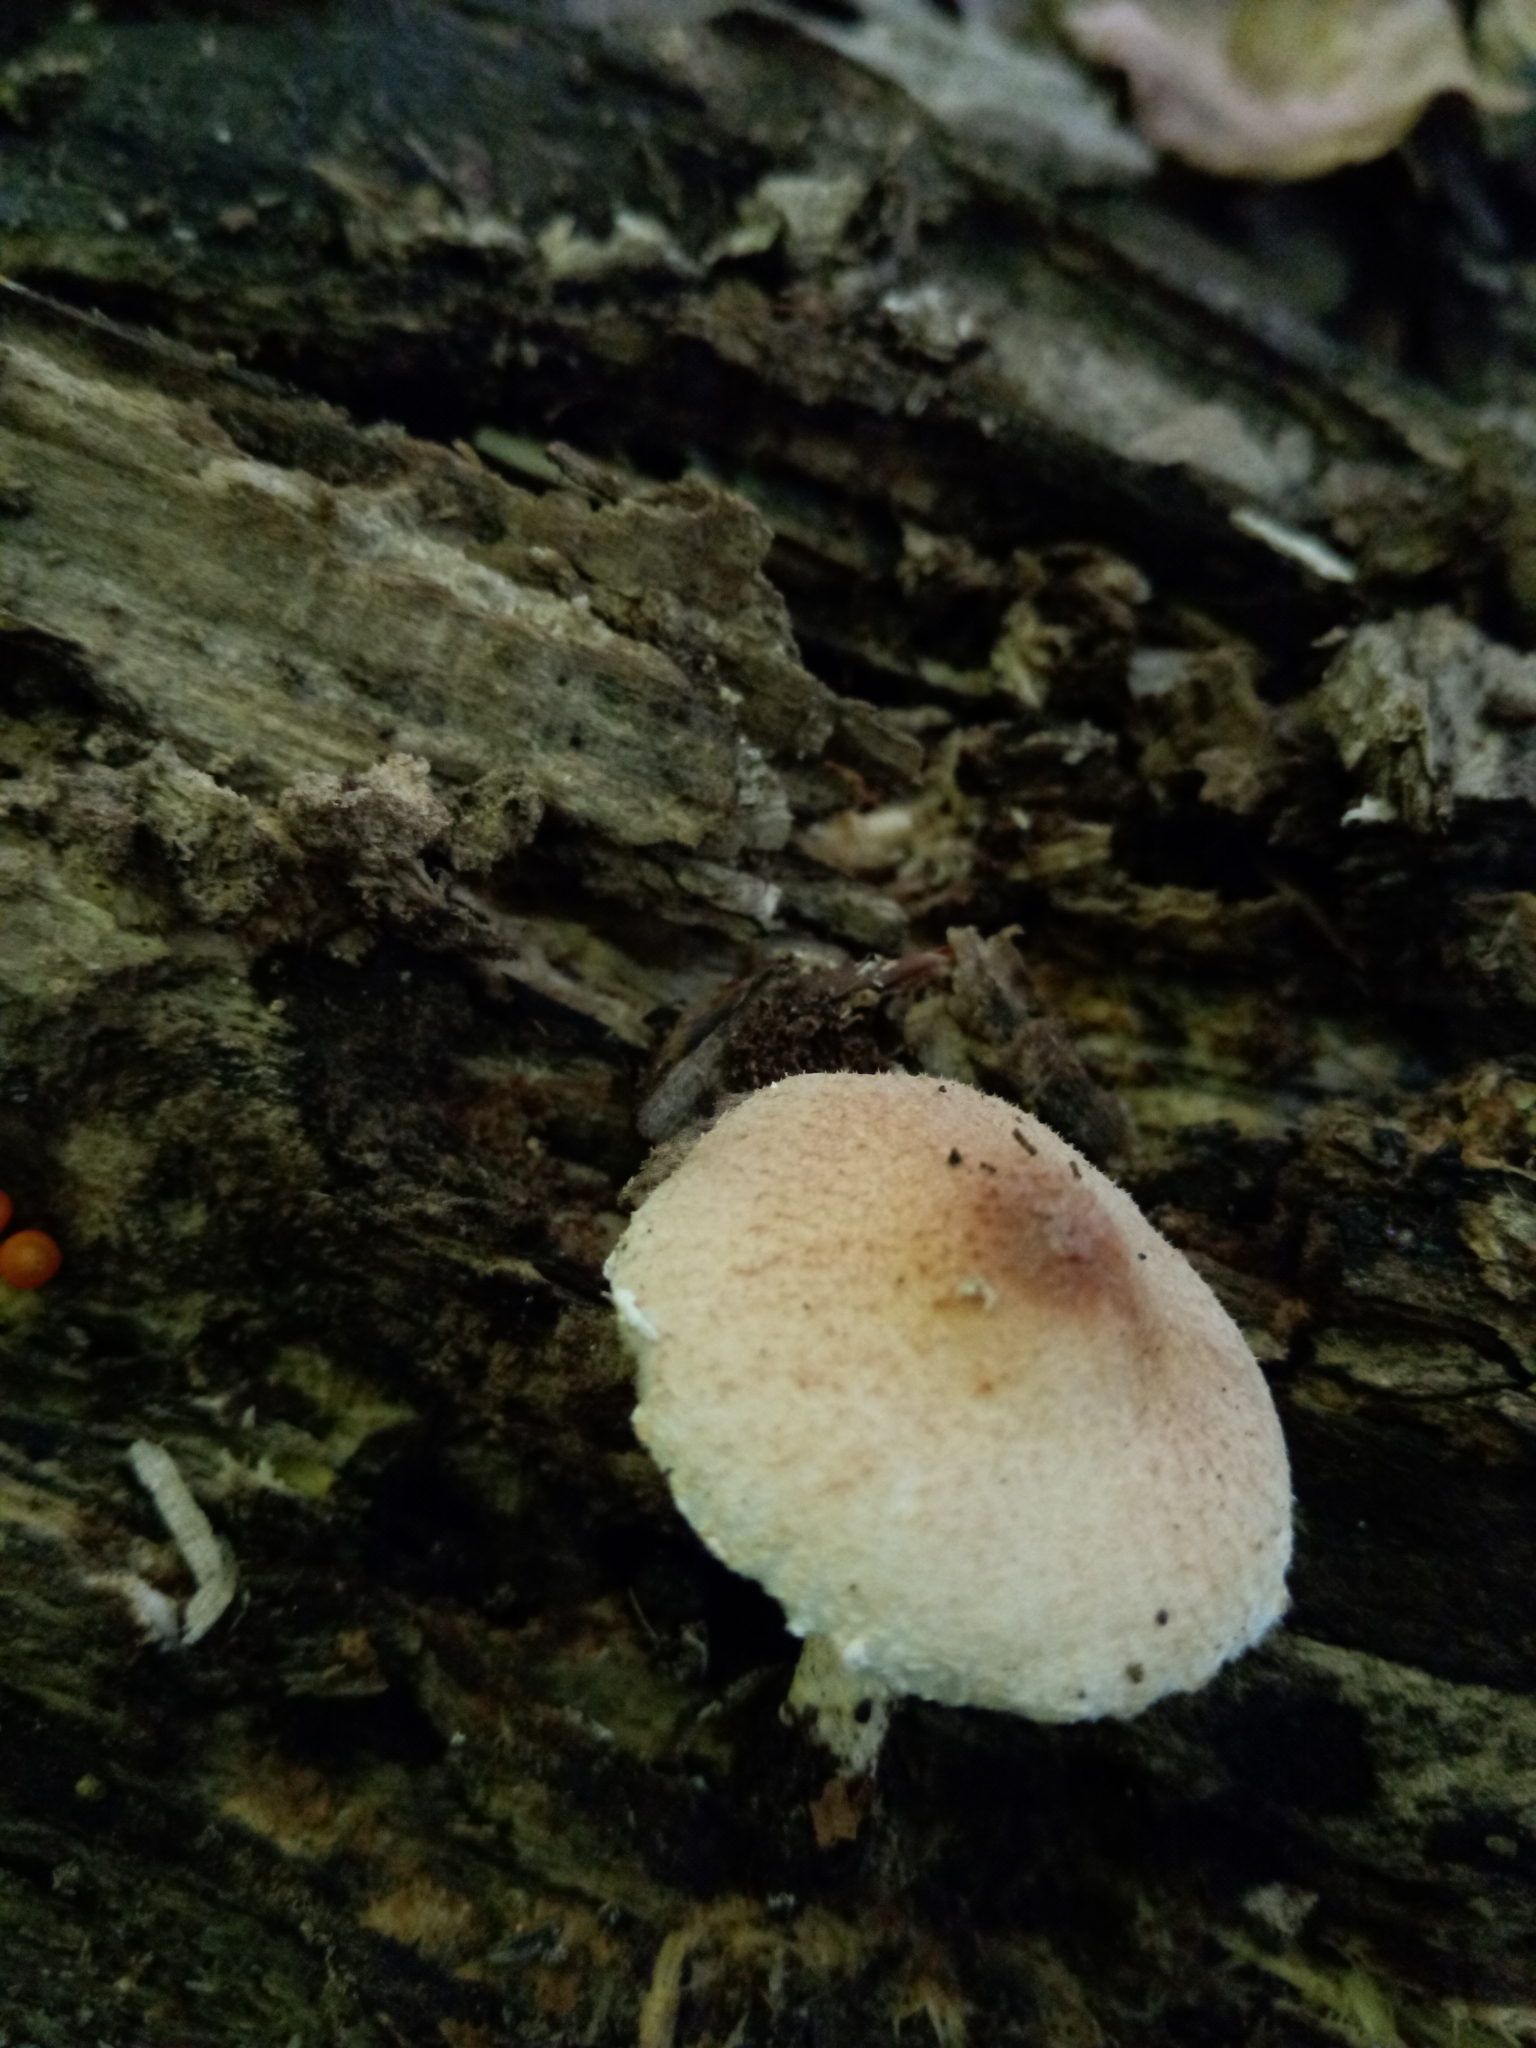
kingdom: Fungi
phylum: Basidiomycota
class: Agaricomycetes
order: Agaricales
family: Agaricaceae
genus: Lepiota
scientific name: Lepiota flammeotincta
